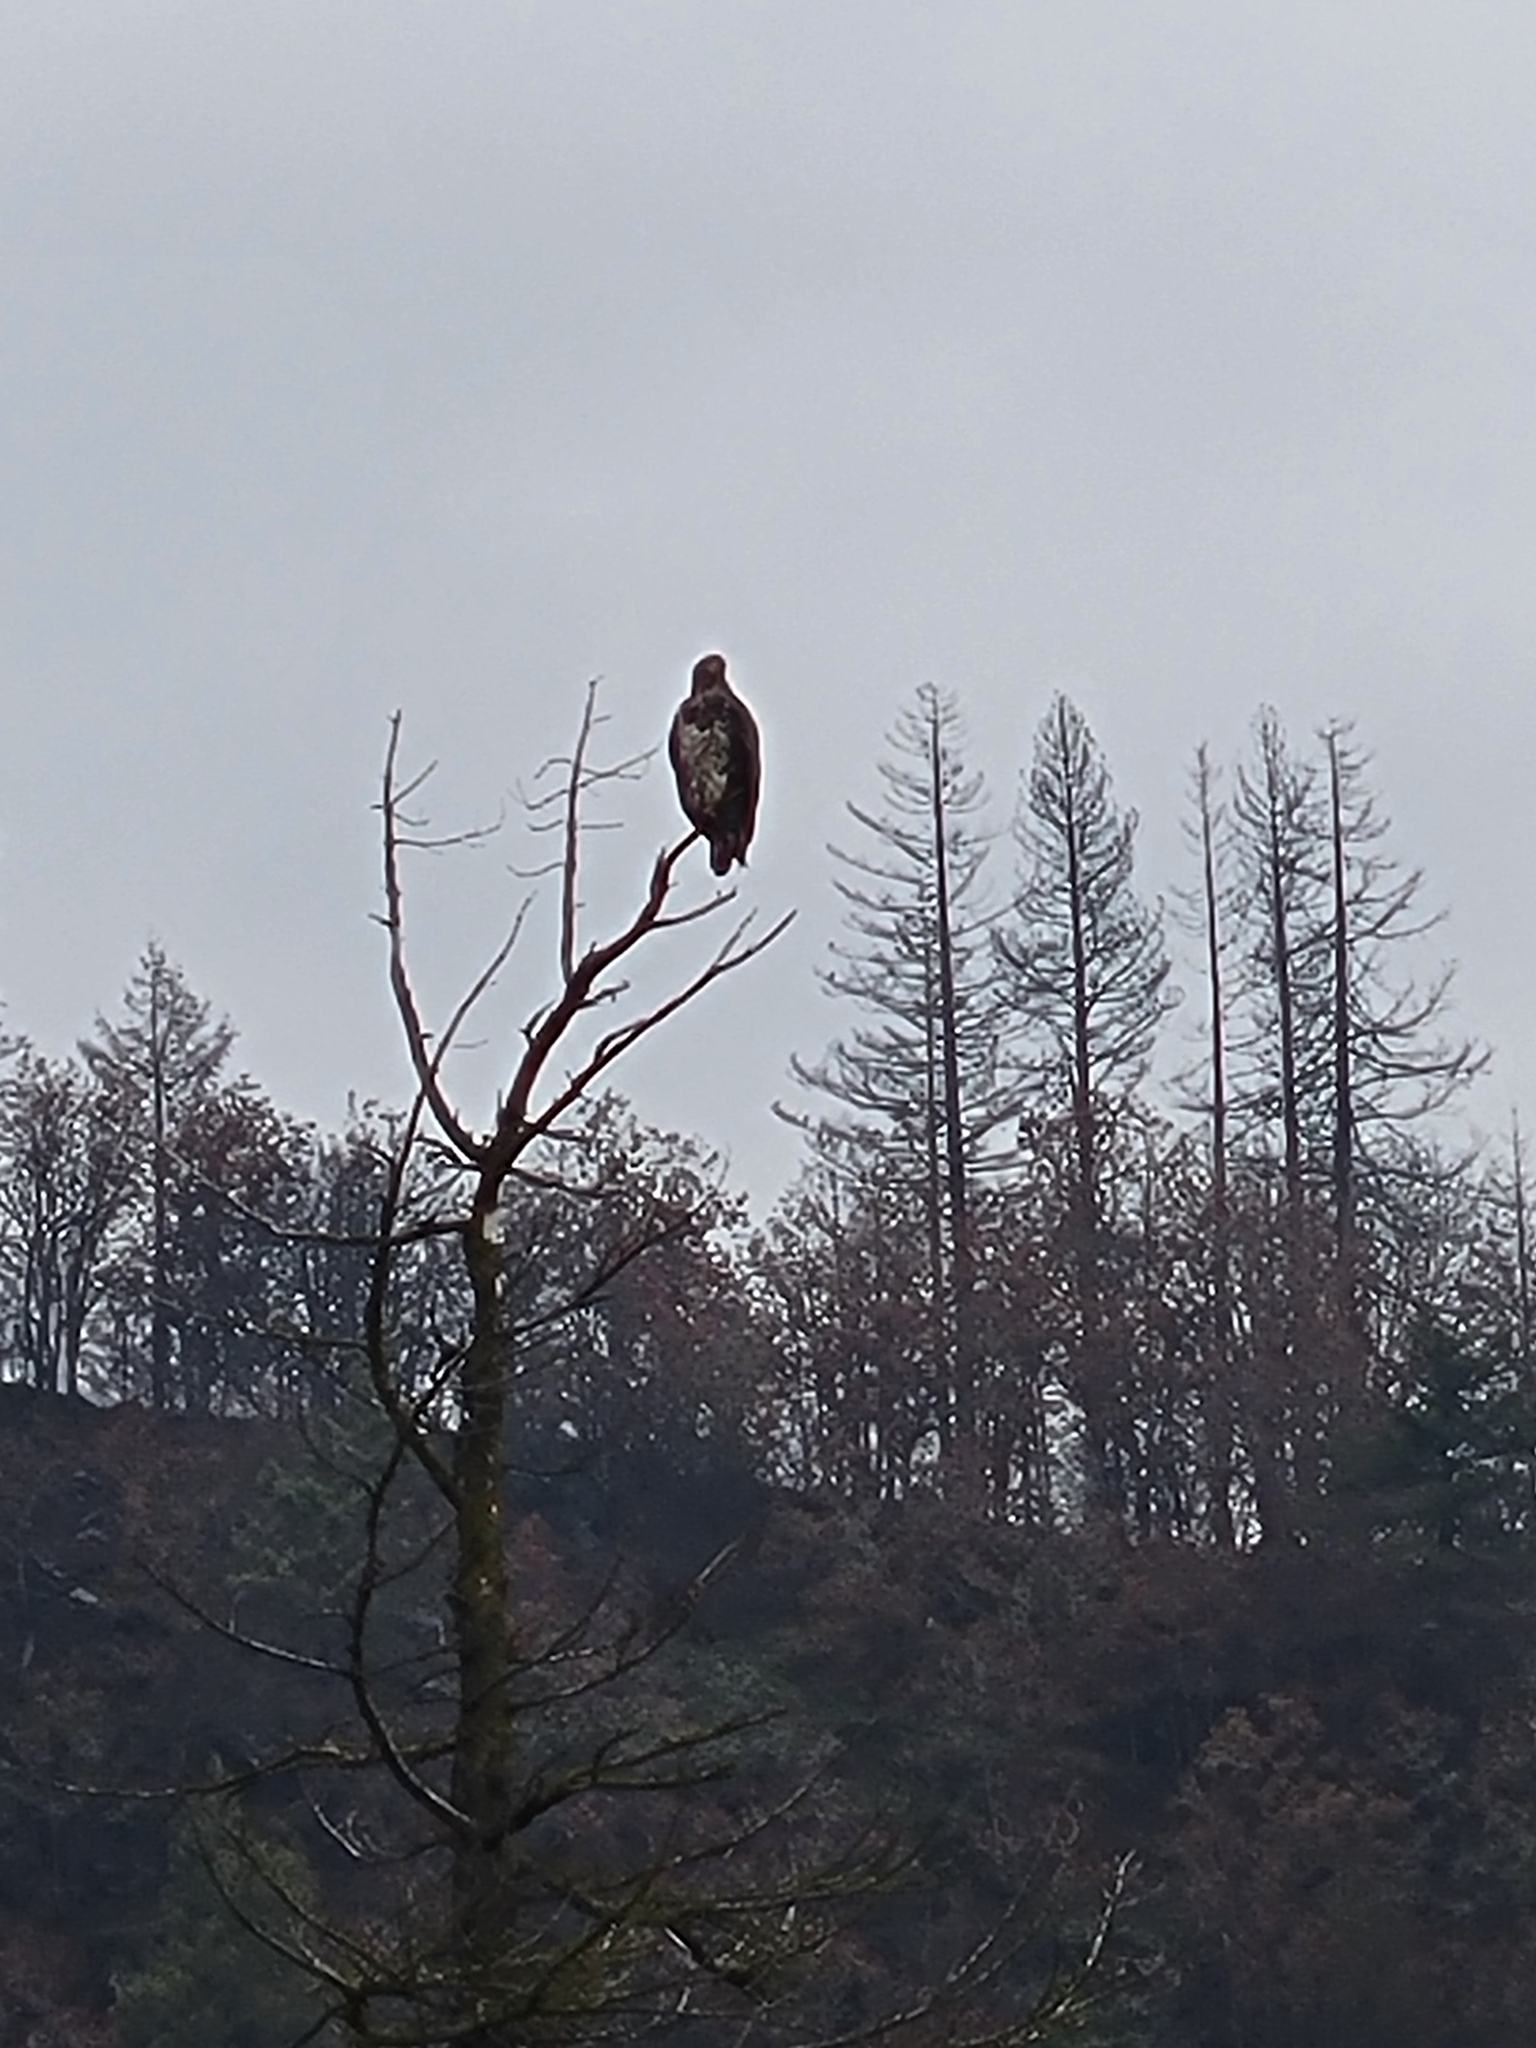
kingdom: Animalia
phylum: Chordata
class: Aves
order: Accipitriformes
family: Accipitridae
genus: Haliaeetus
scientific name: Haliaeetus leucocephalus
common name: Bald eagle
